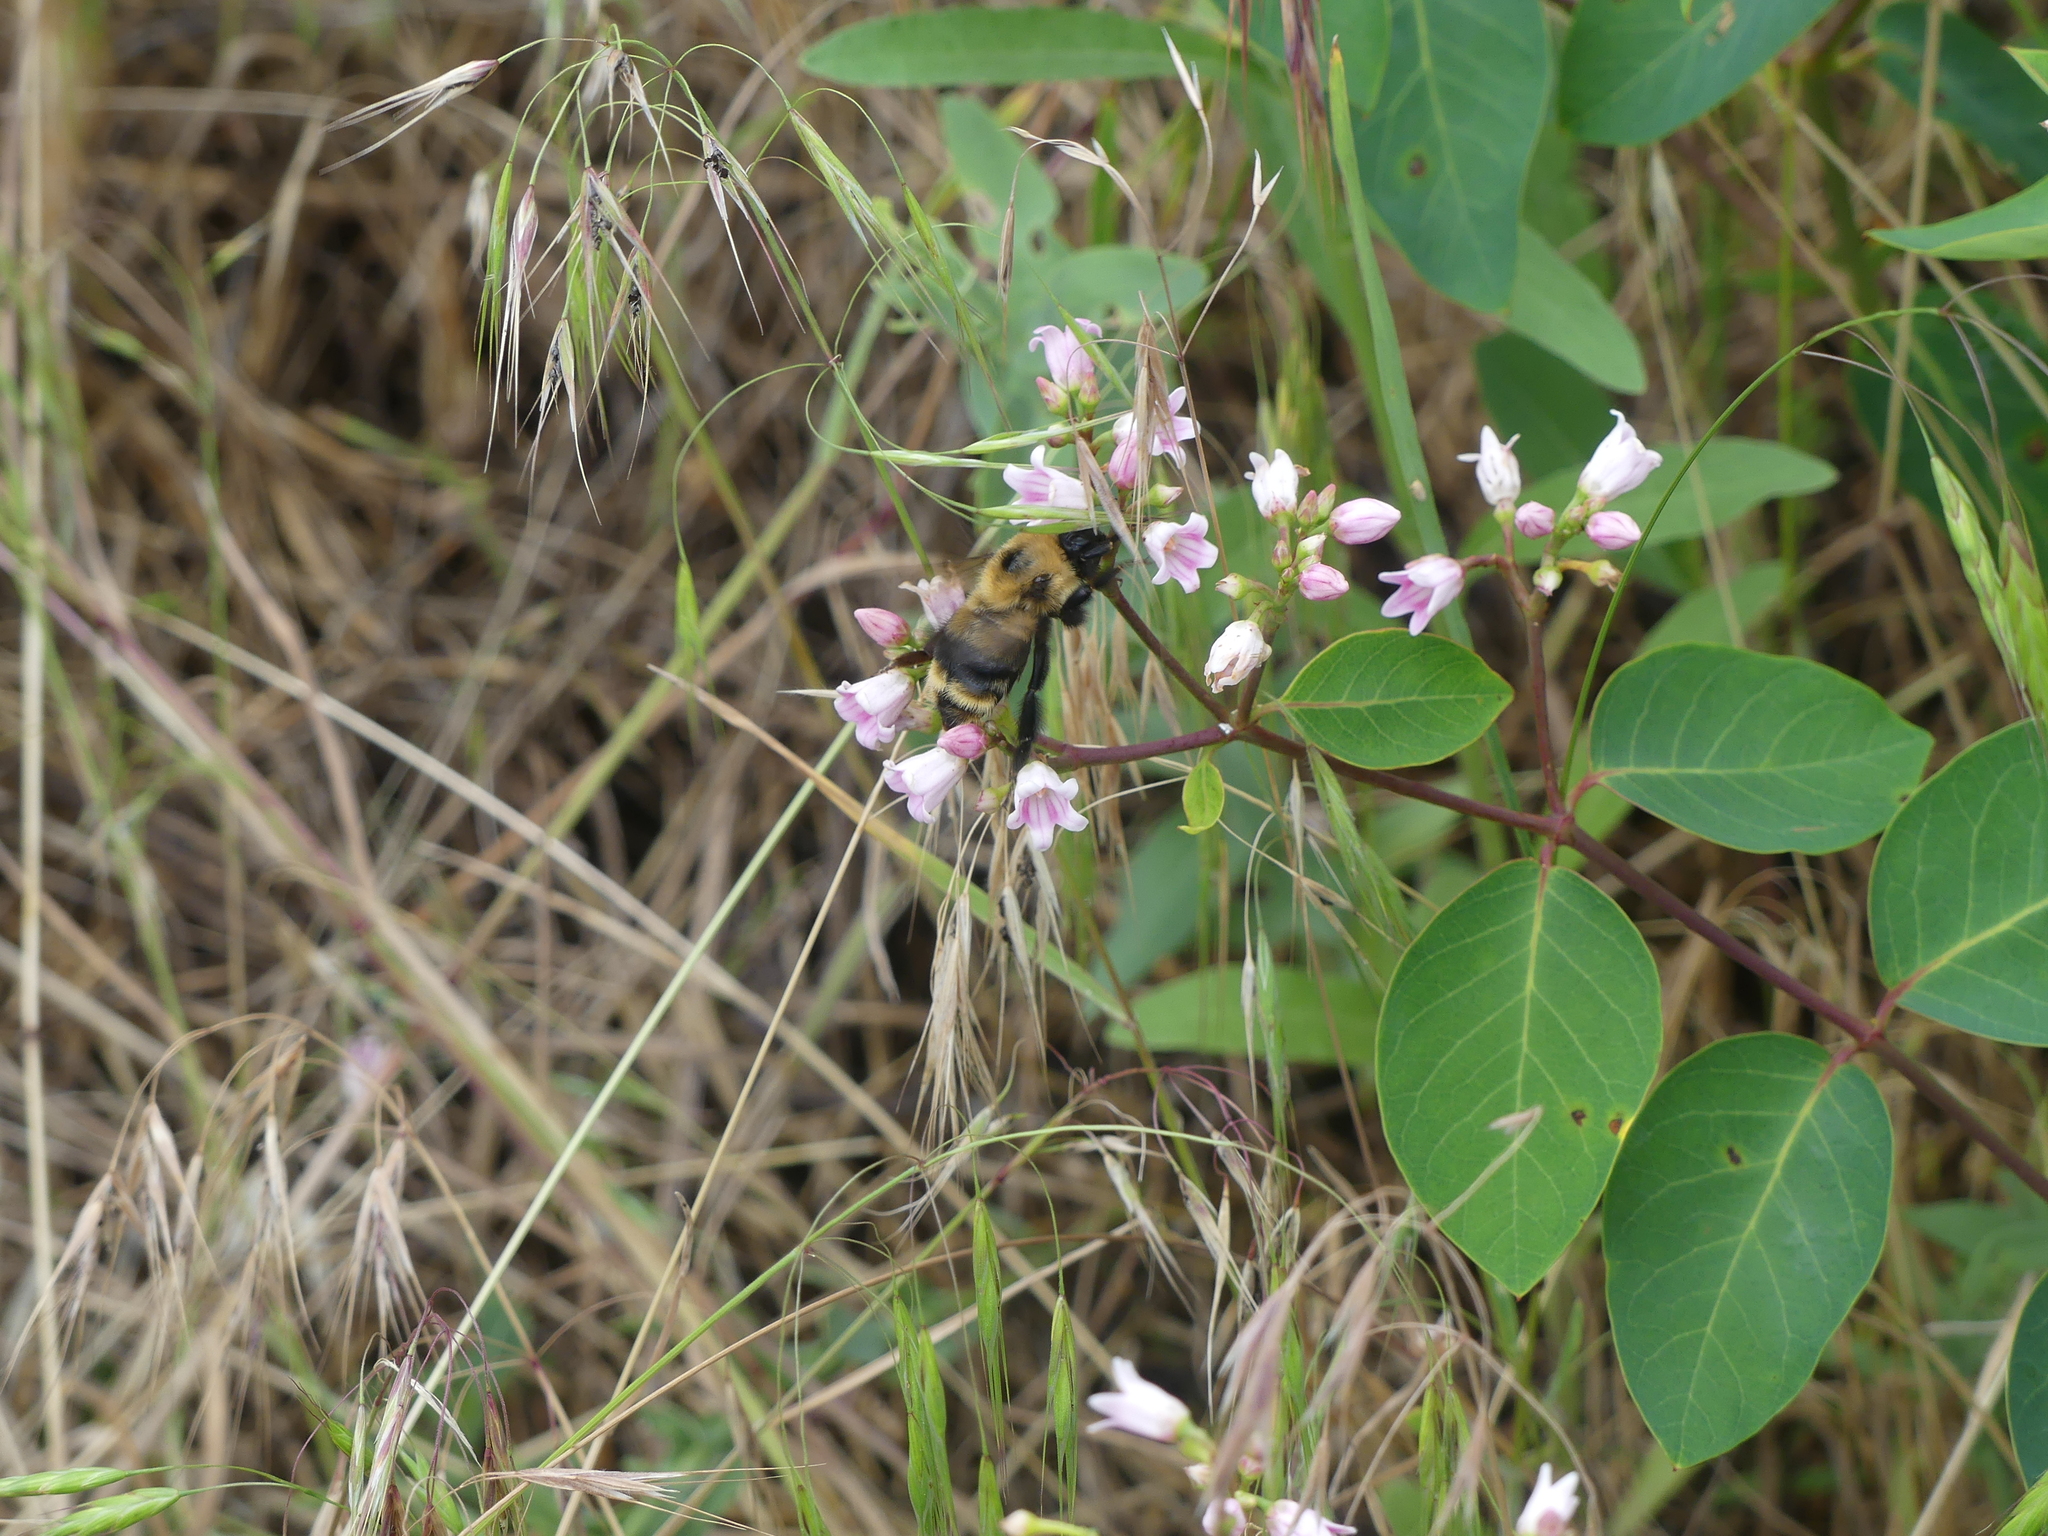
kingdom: Animalia
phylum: Arthropoda
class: Insecta
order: Hymenoptera
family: Apidae
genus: Bombus
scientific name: Bombus rufocinctus
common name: Red-belted bumble bee
